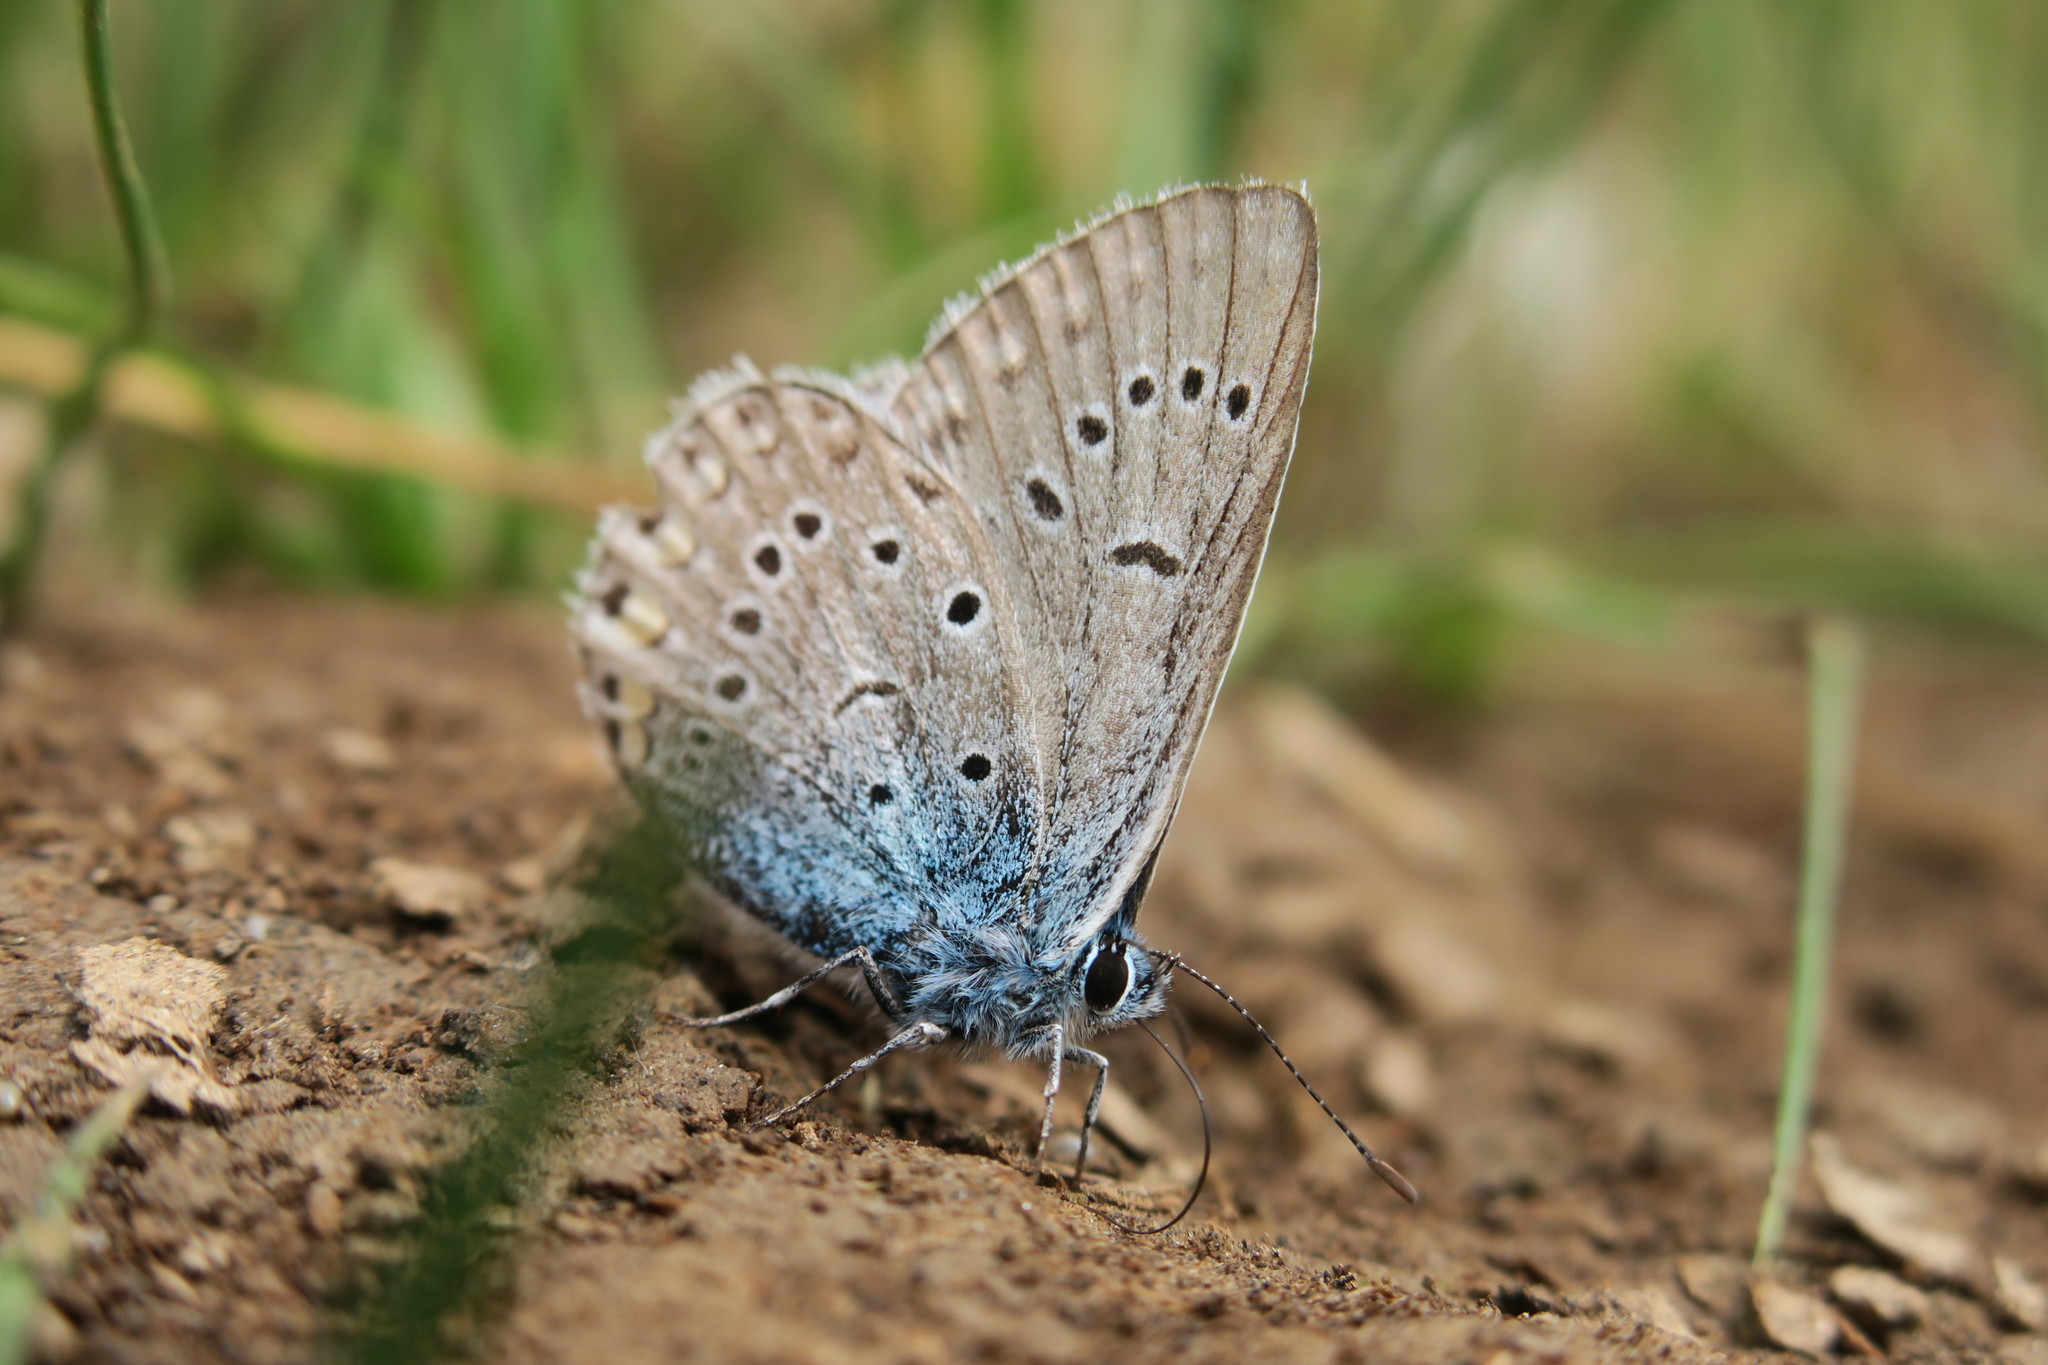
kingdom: Animalia
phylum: Arthropoda
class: Insecta
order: Lepidoptera
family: Lycaenidae
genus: Plebejus
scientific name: Plebejus amanda
